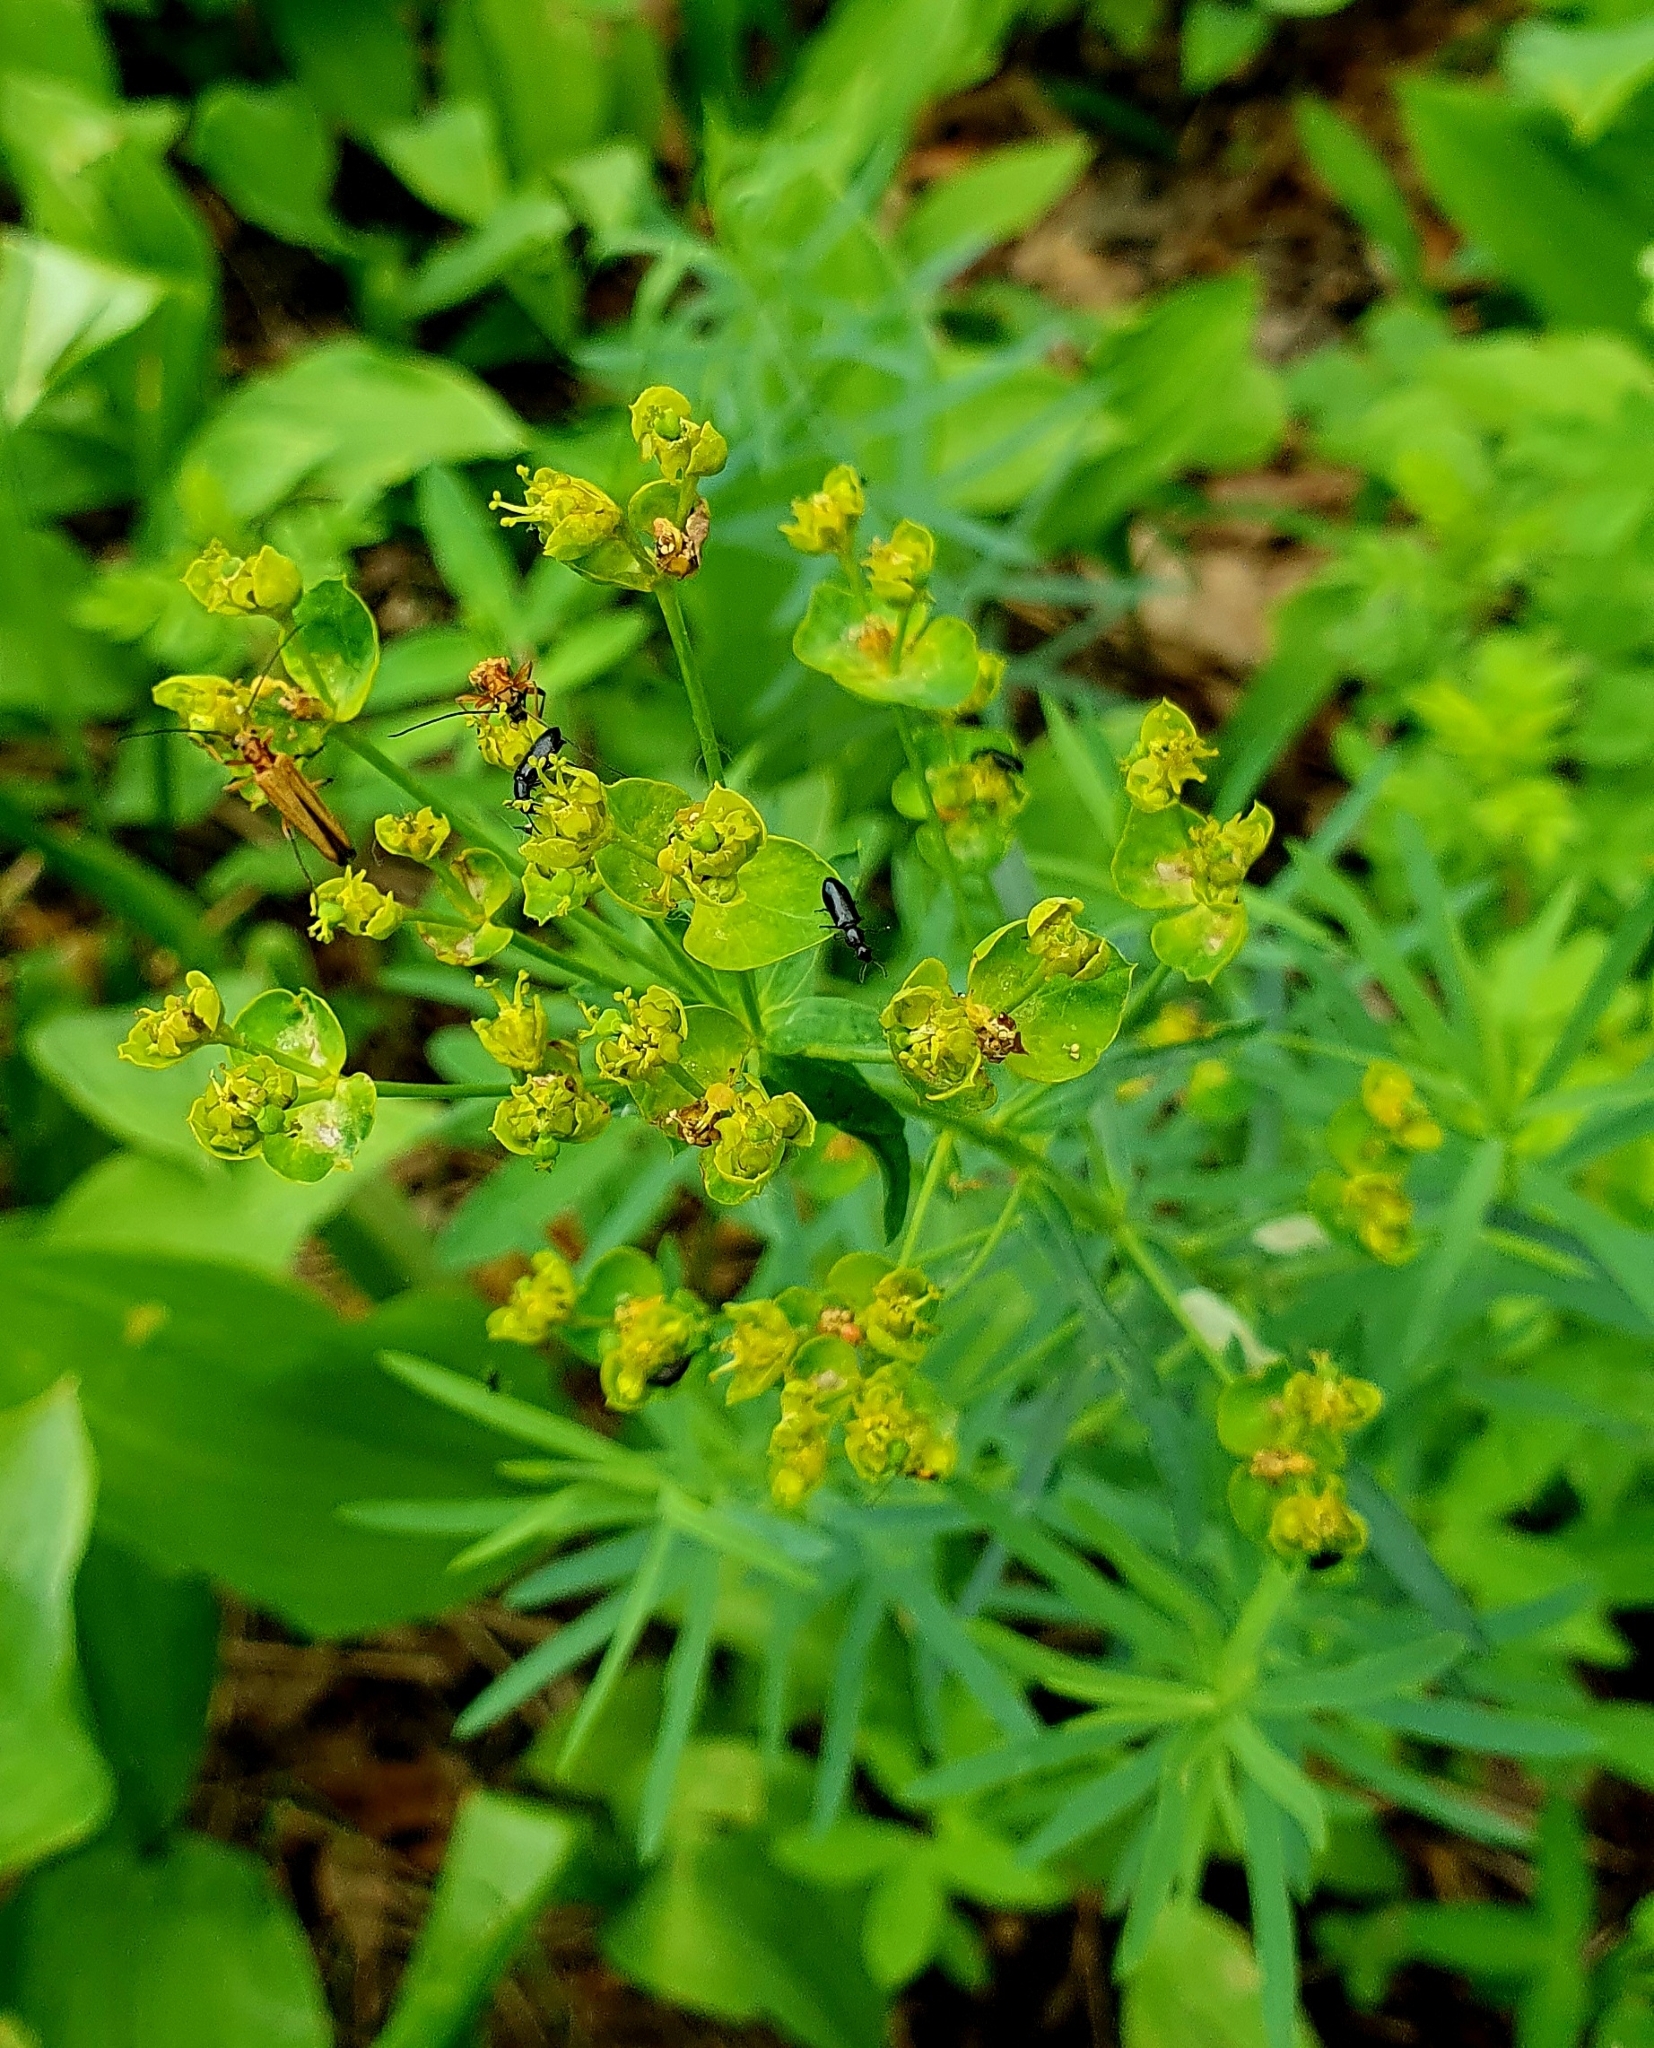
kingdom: Plantae
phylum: Tracheophyta
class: Magnoliopsida
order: Malpighiales
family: Euphorbiaceae
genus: Euphorbia
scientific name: Euphorbia virgata
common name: Leafy spurge
